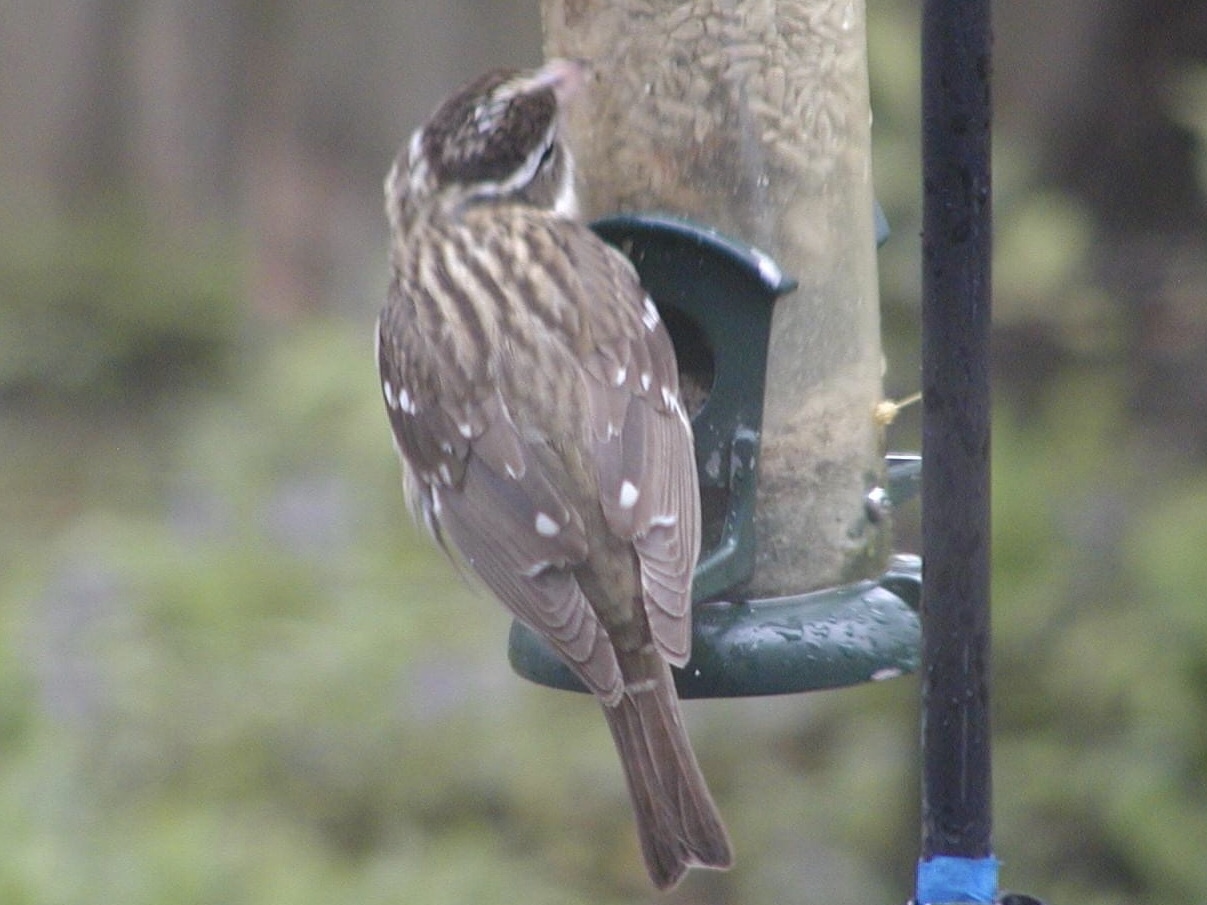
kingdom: Animalia
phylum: Chordata
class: Aves
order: Passeriformes
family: Cardinalidae
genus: Pheucticus
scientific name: Pheucticus ludovicianus
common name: Rose-breasted grosbeak
